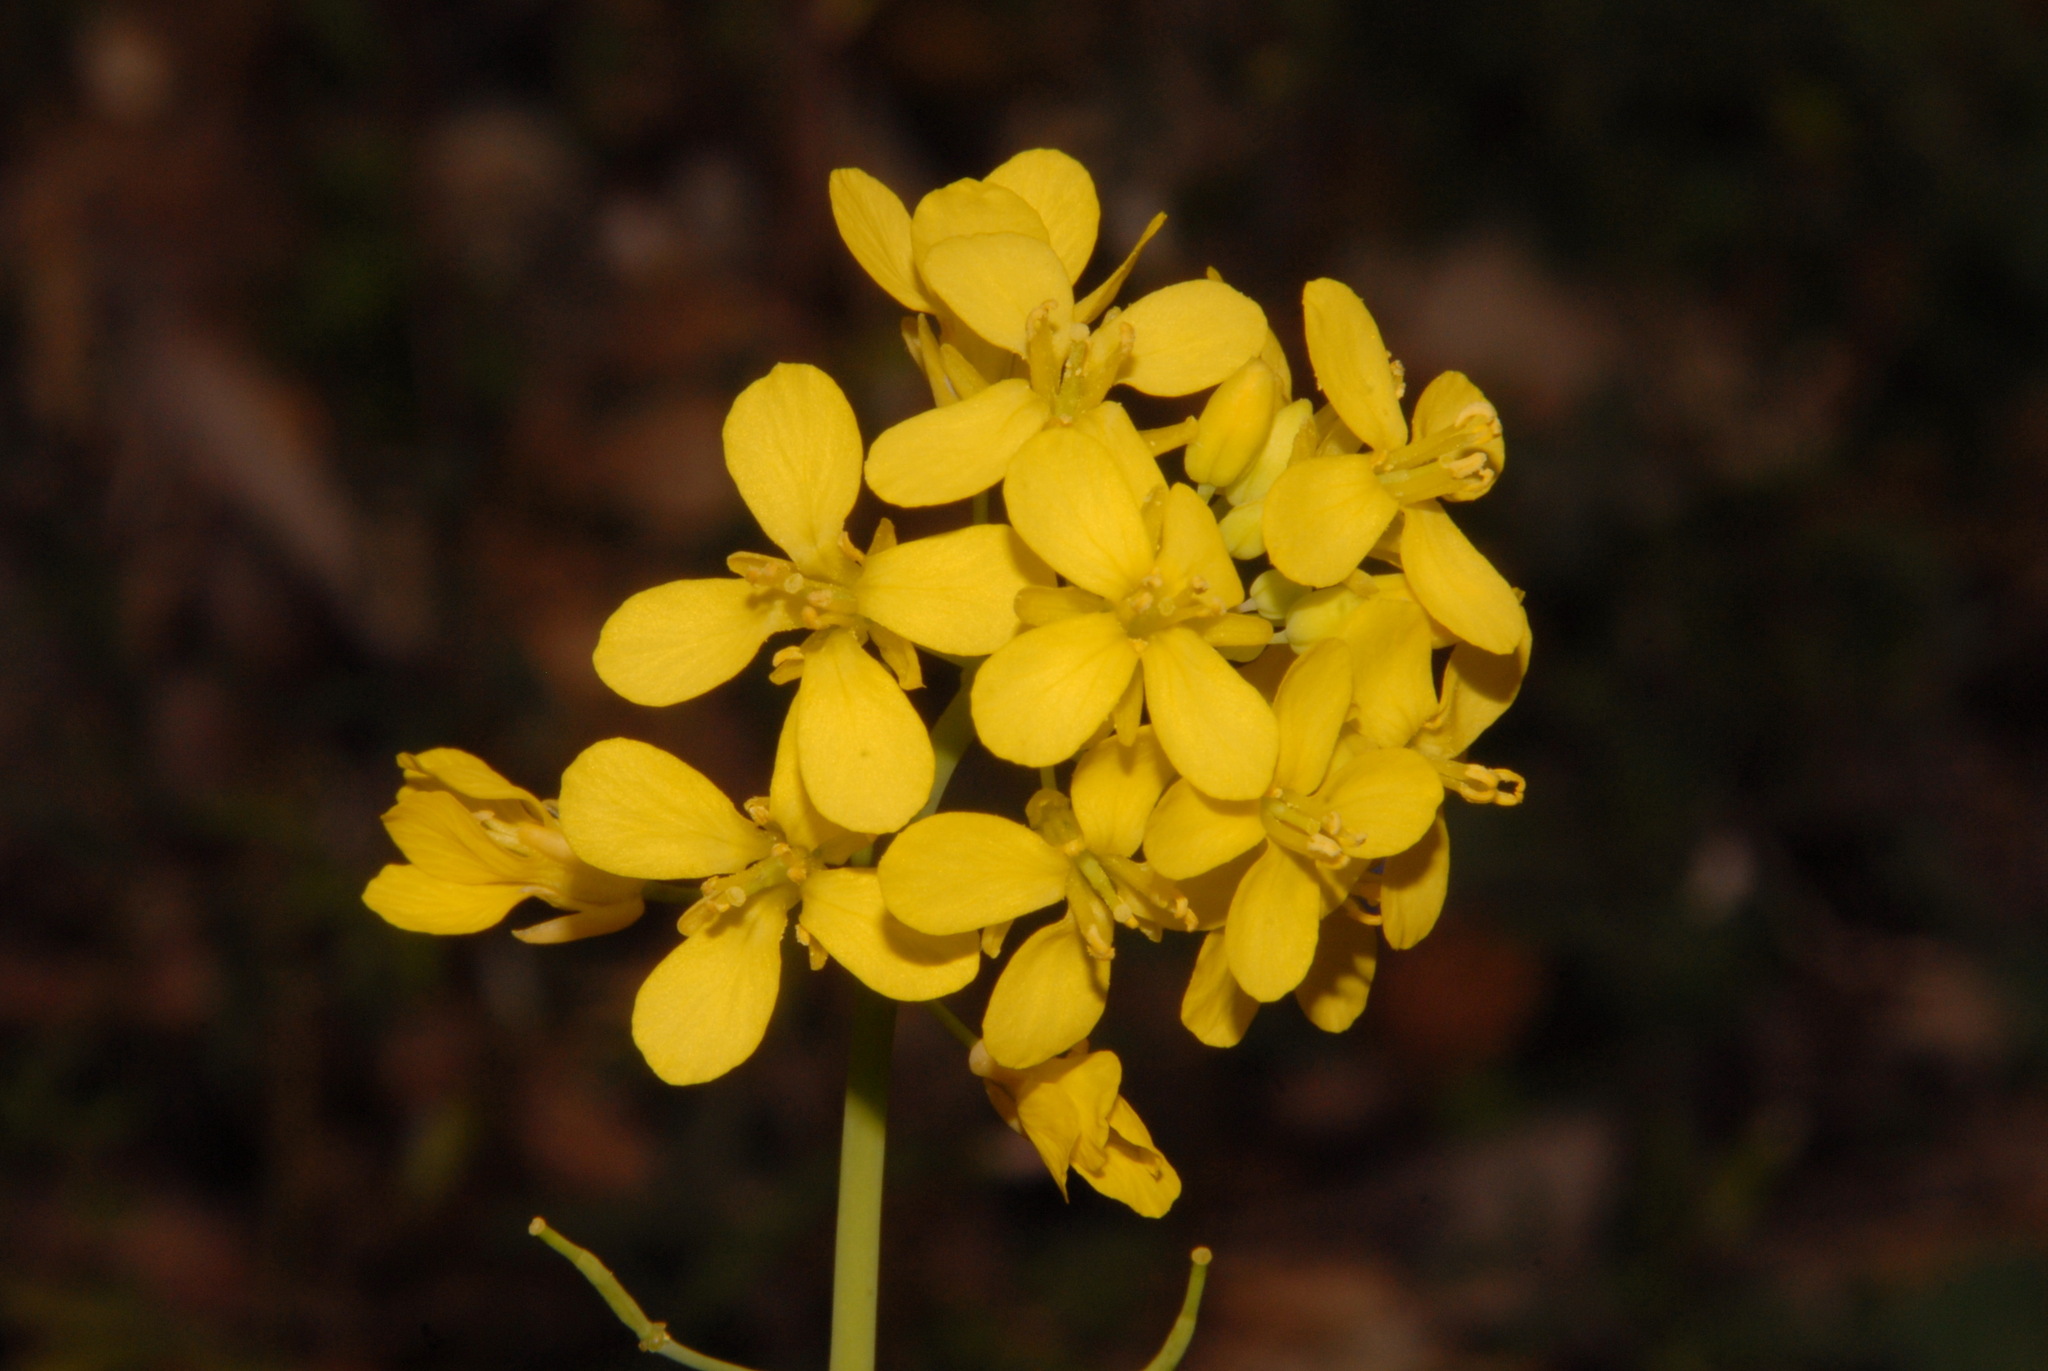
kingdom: Plantae
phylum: Tracheophyta
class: Magnoliopsida
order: Brassicales
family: Brassicaceae
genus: Brassica
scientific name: Brassica rapa
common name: Field mustard
